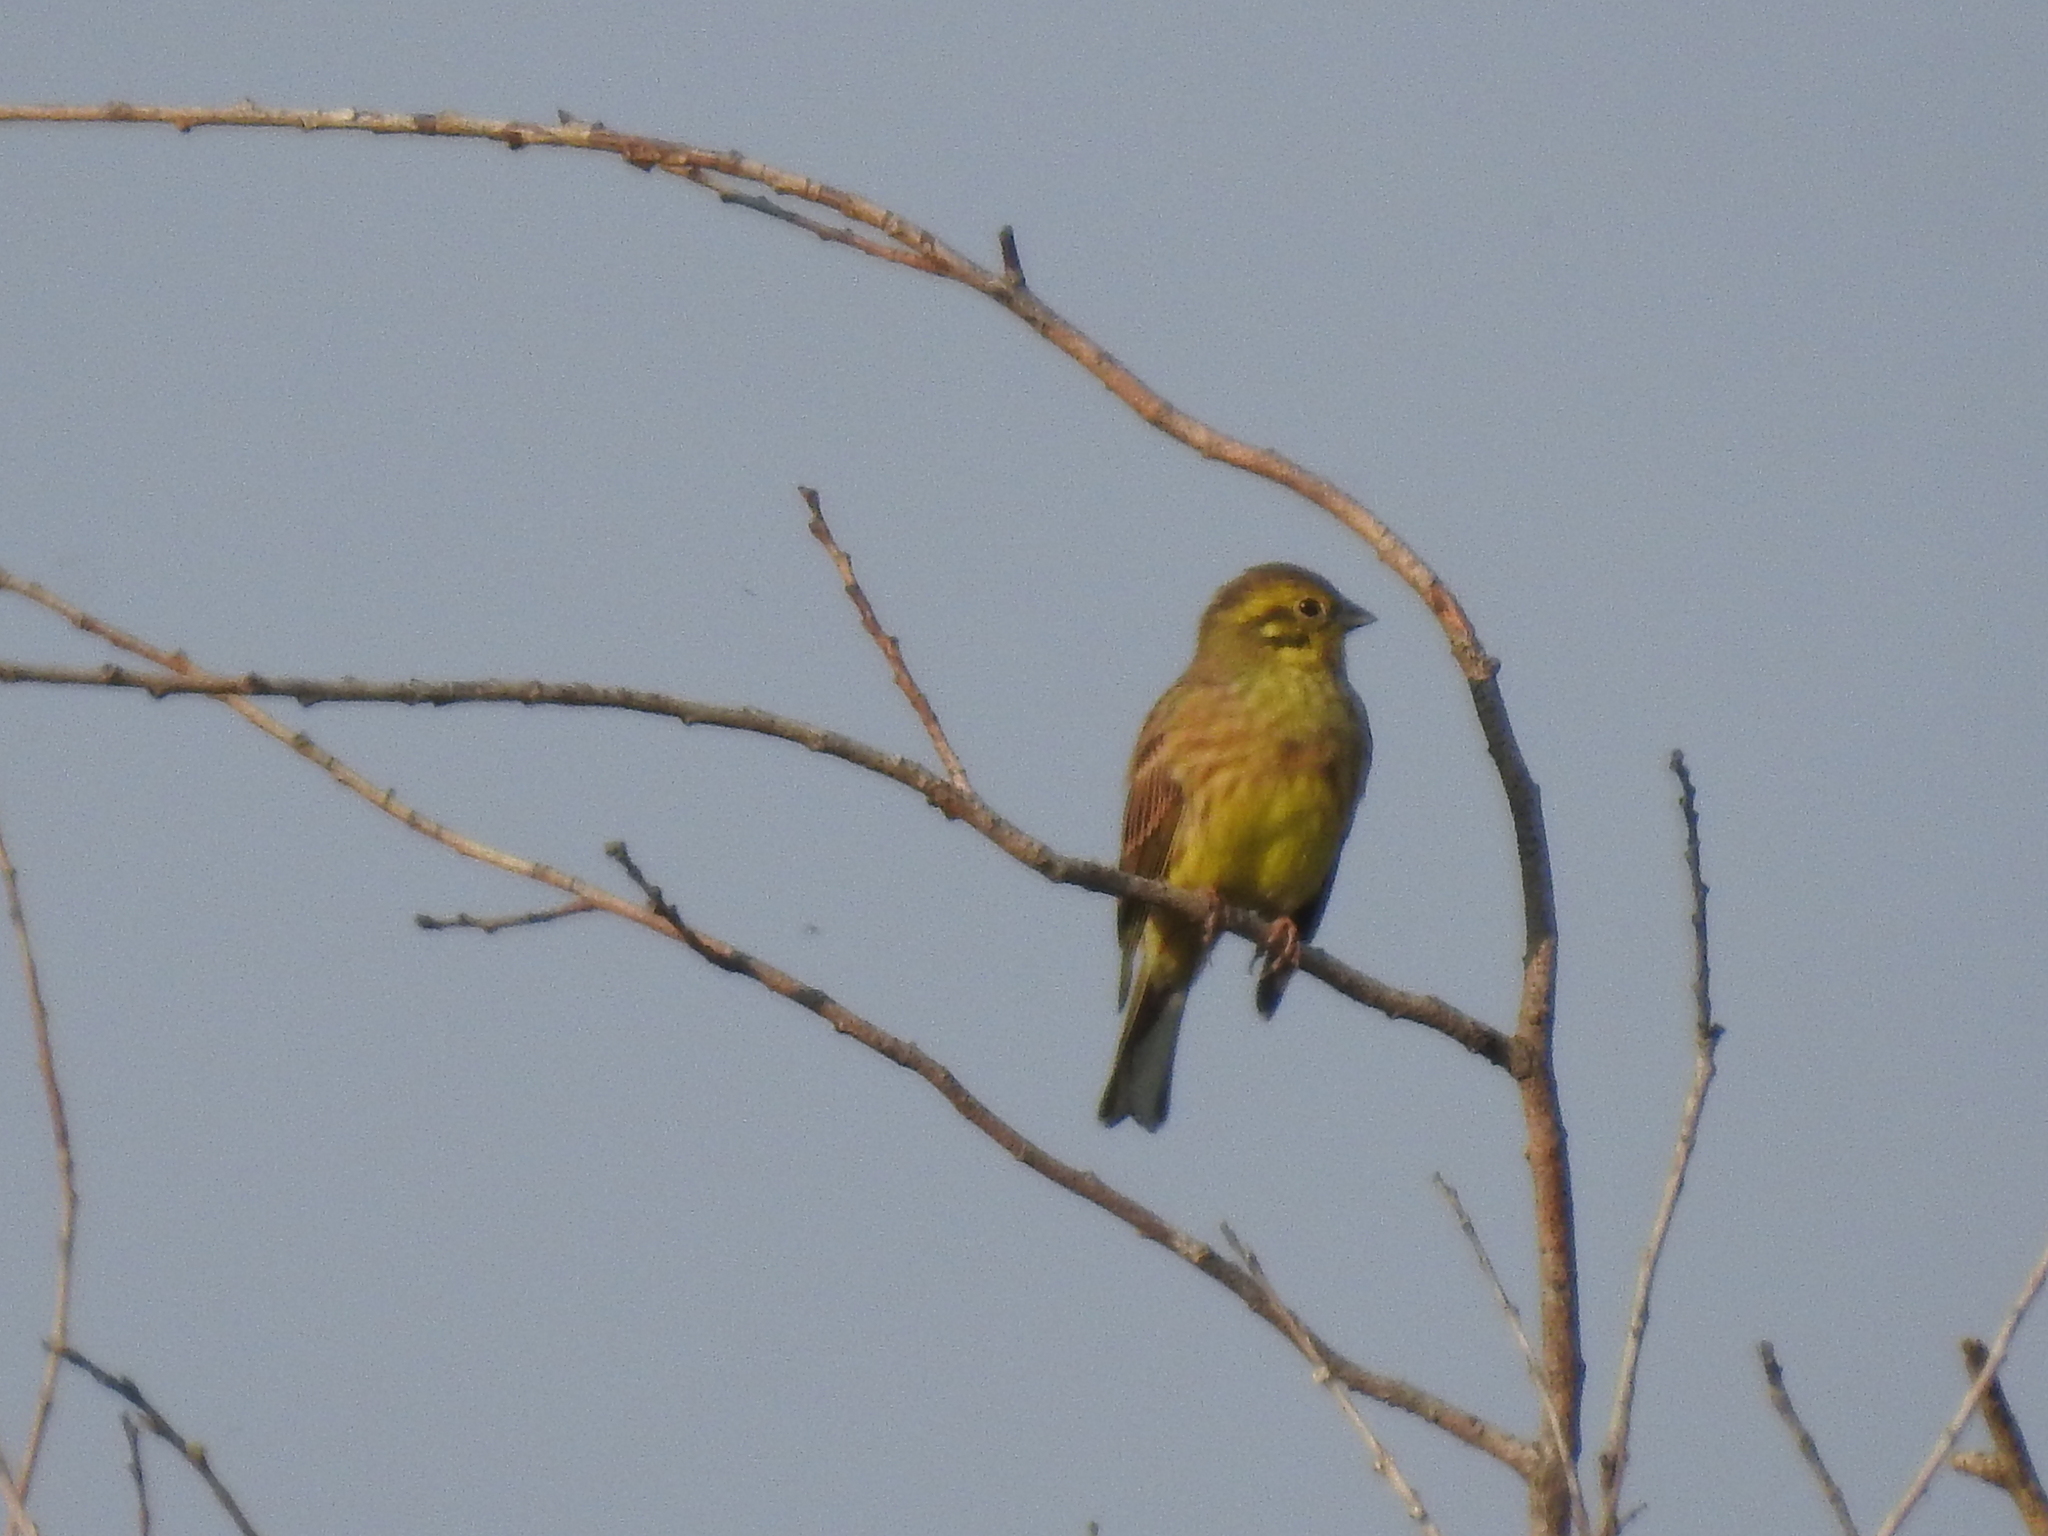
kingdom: Animalia
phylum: Chordata
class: Aves
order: Passeriformes
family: Emberizidae
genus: Emberiza
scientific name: Emberiza citrinella
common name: Yellowhammer
